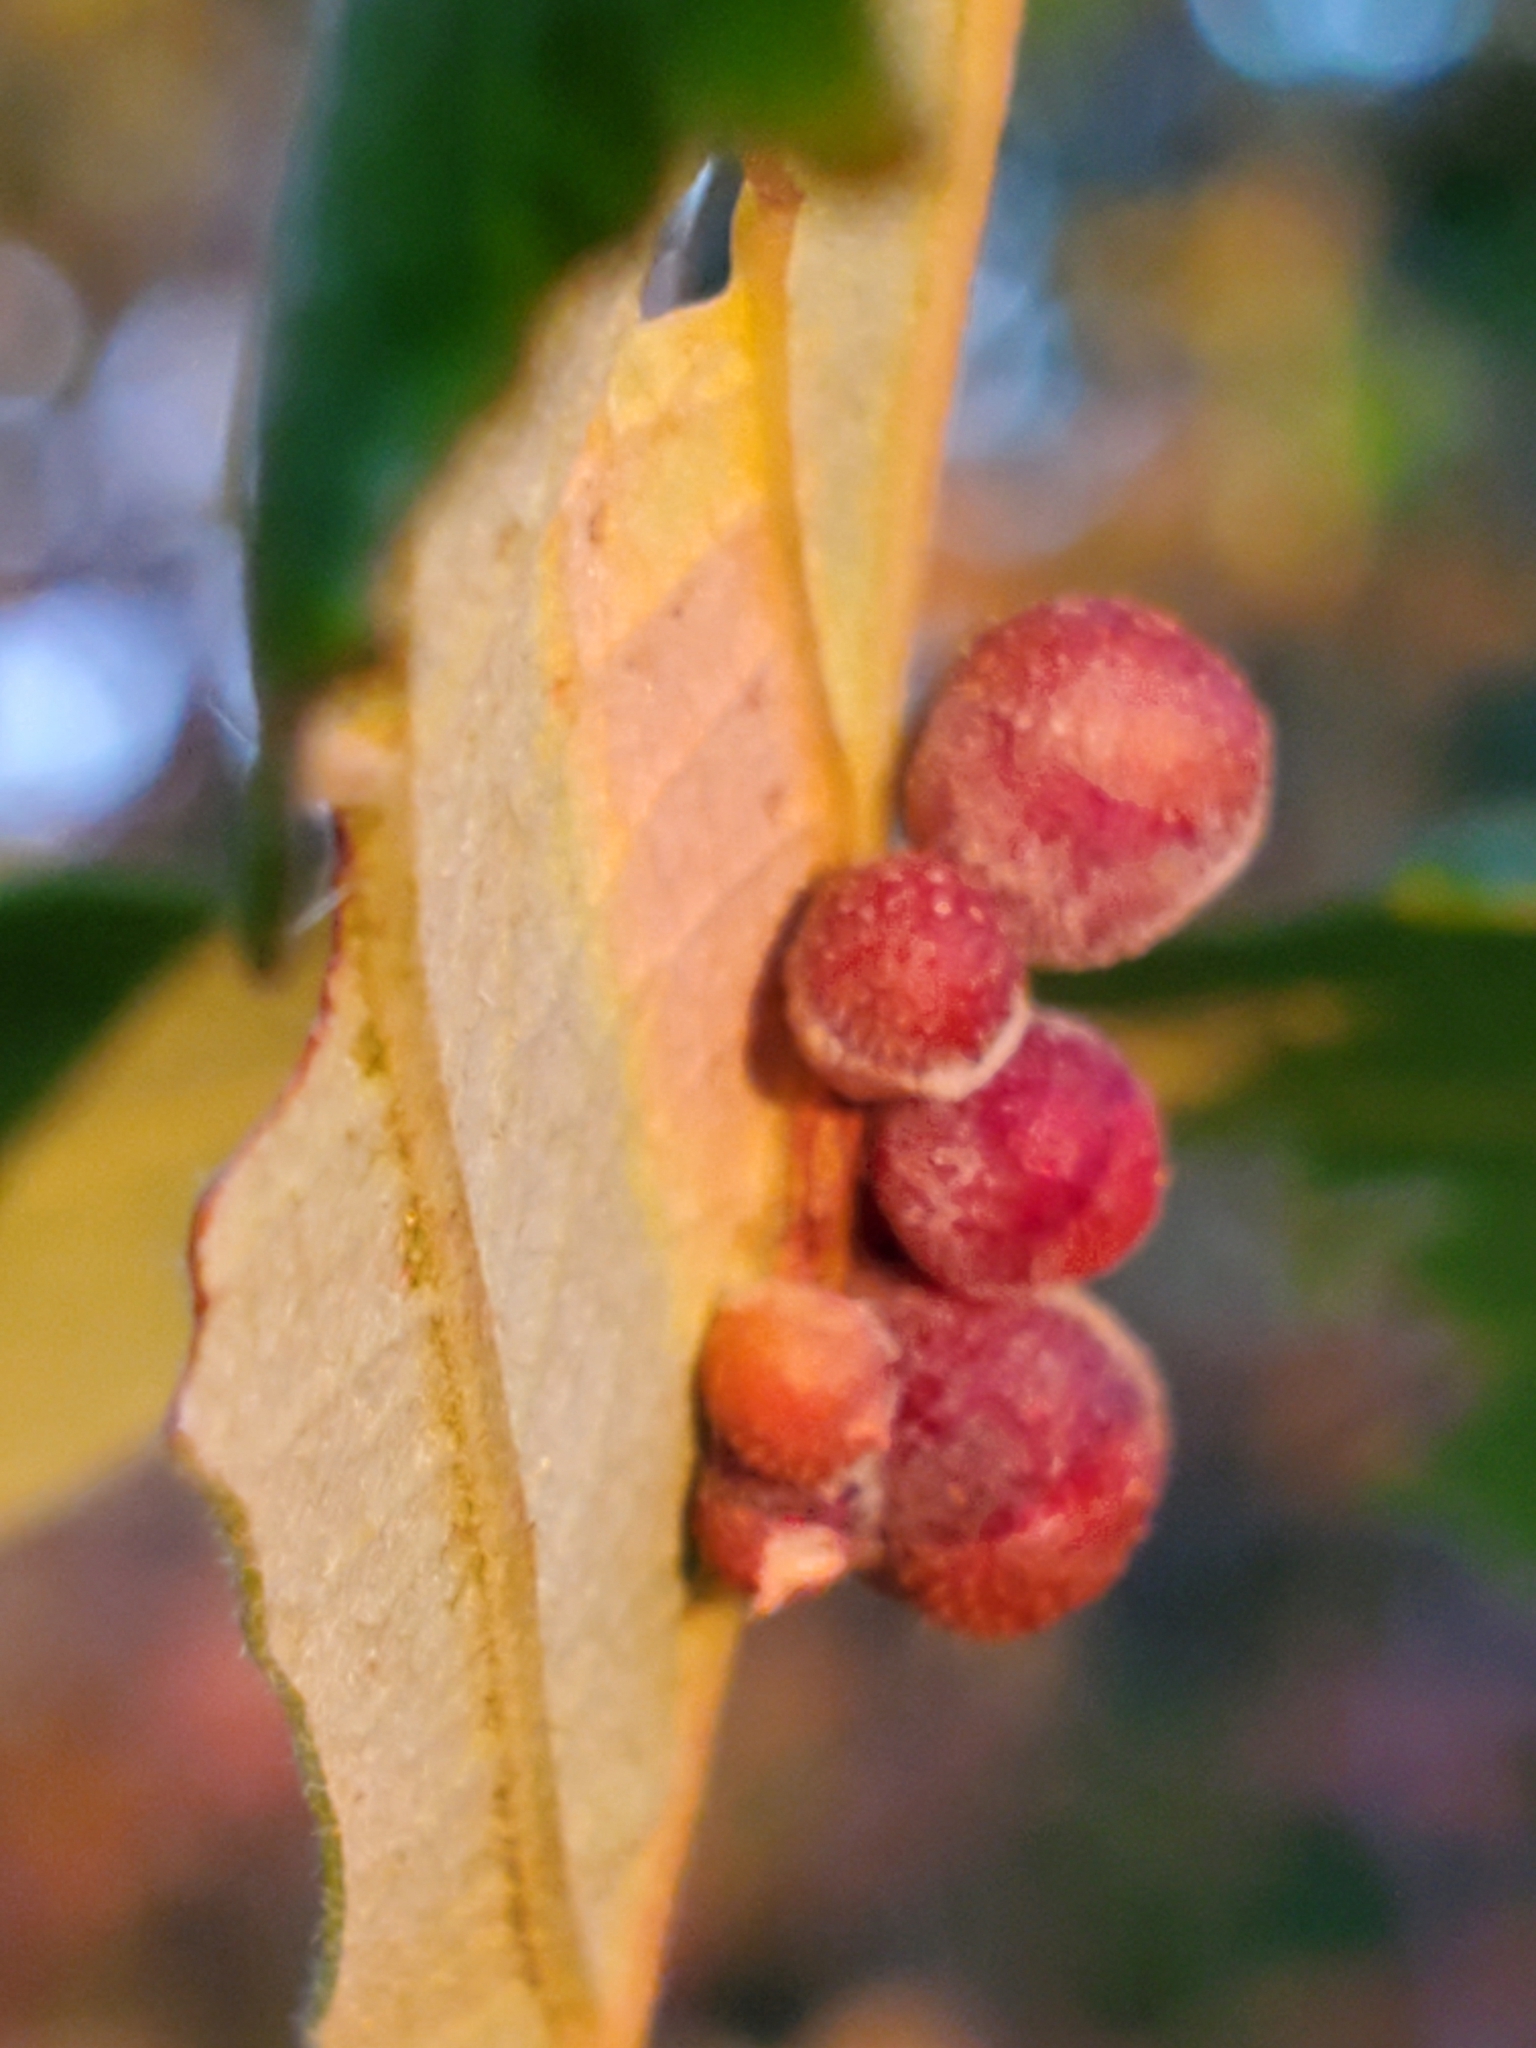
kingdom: Animalia
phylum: Arthropoda
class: Insecta
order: Hymenoptera
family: Cynipidae
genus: Andricus
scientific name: Andricus
